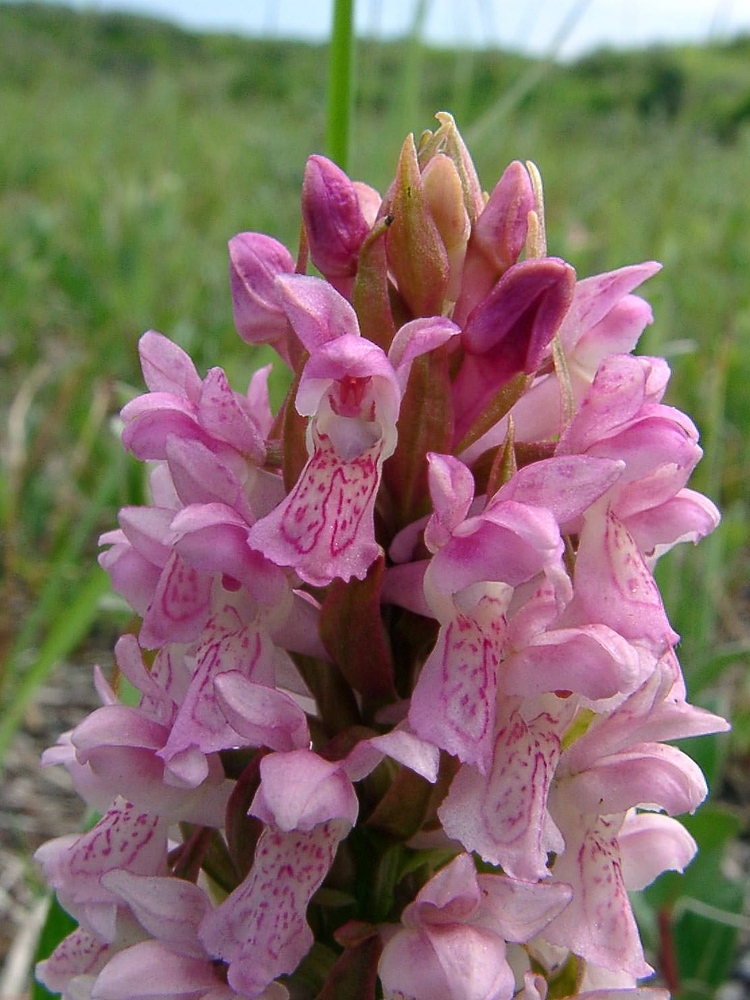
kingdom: Plantae
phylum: Tracheophyta
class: Liliopsida
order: Asparagales
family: Orchidaceae
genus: Dactylorhiza
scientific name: Dactylorhiza incarnata
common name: Early marsh-orchid
